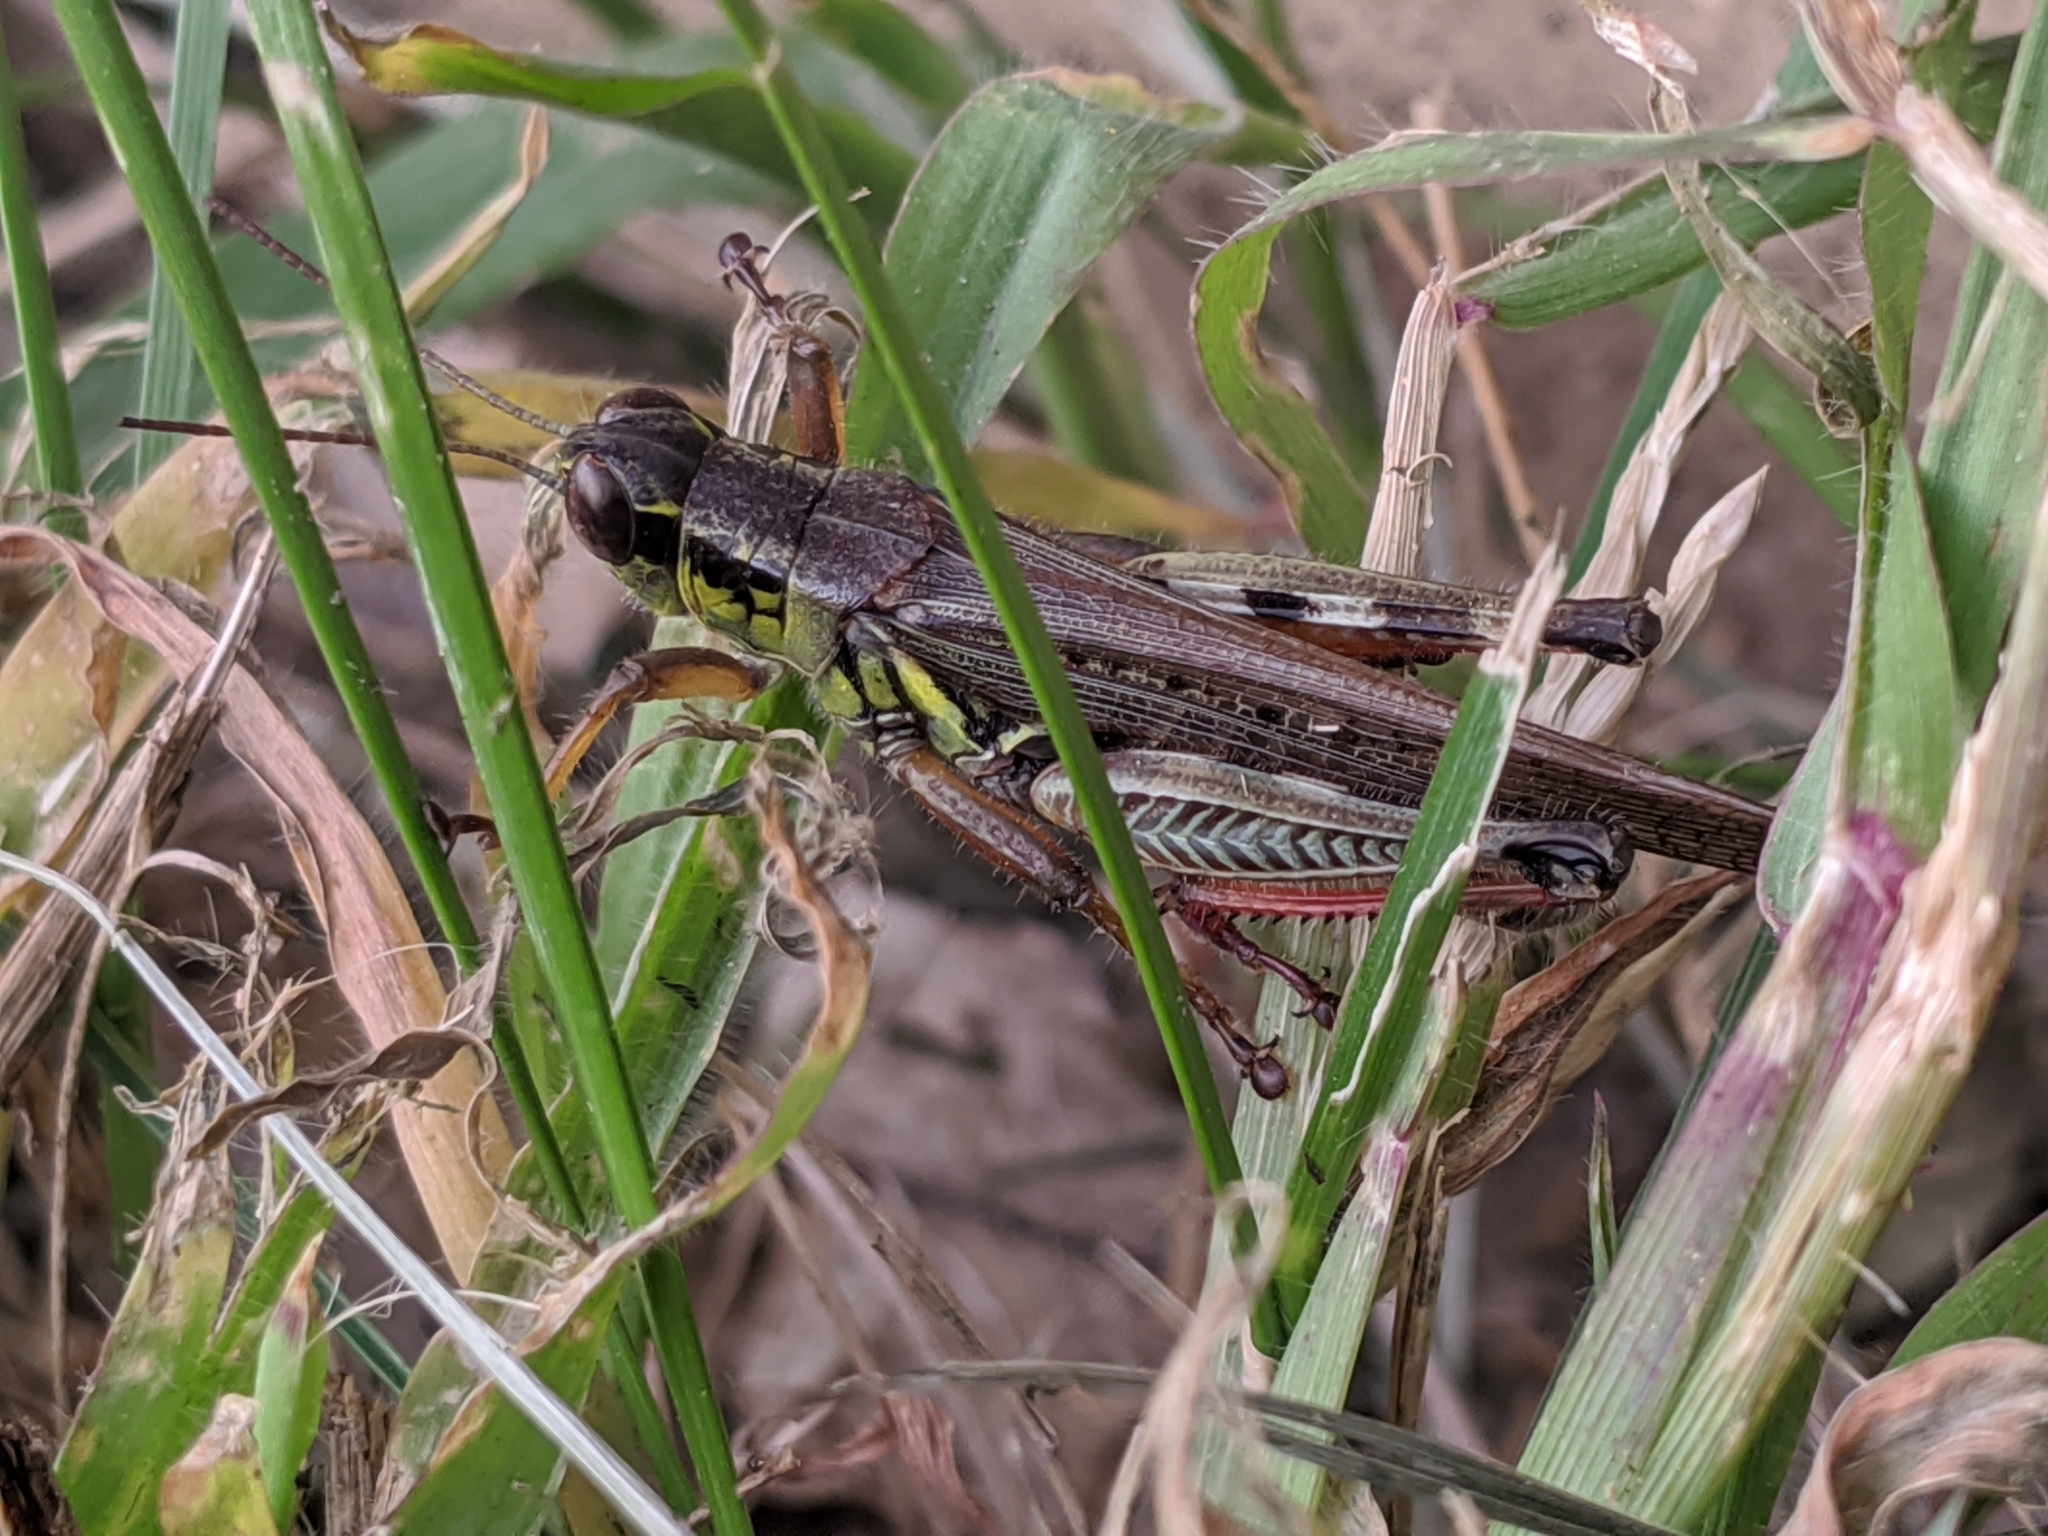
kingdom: Animalia
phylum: Arthropoda
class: Insecta
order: Orthoptera
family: Acrididae
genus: Melanoplus
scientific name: Melanoplus femurrubrum
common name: Red-legged grasshopper
